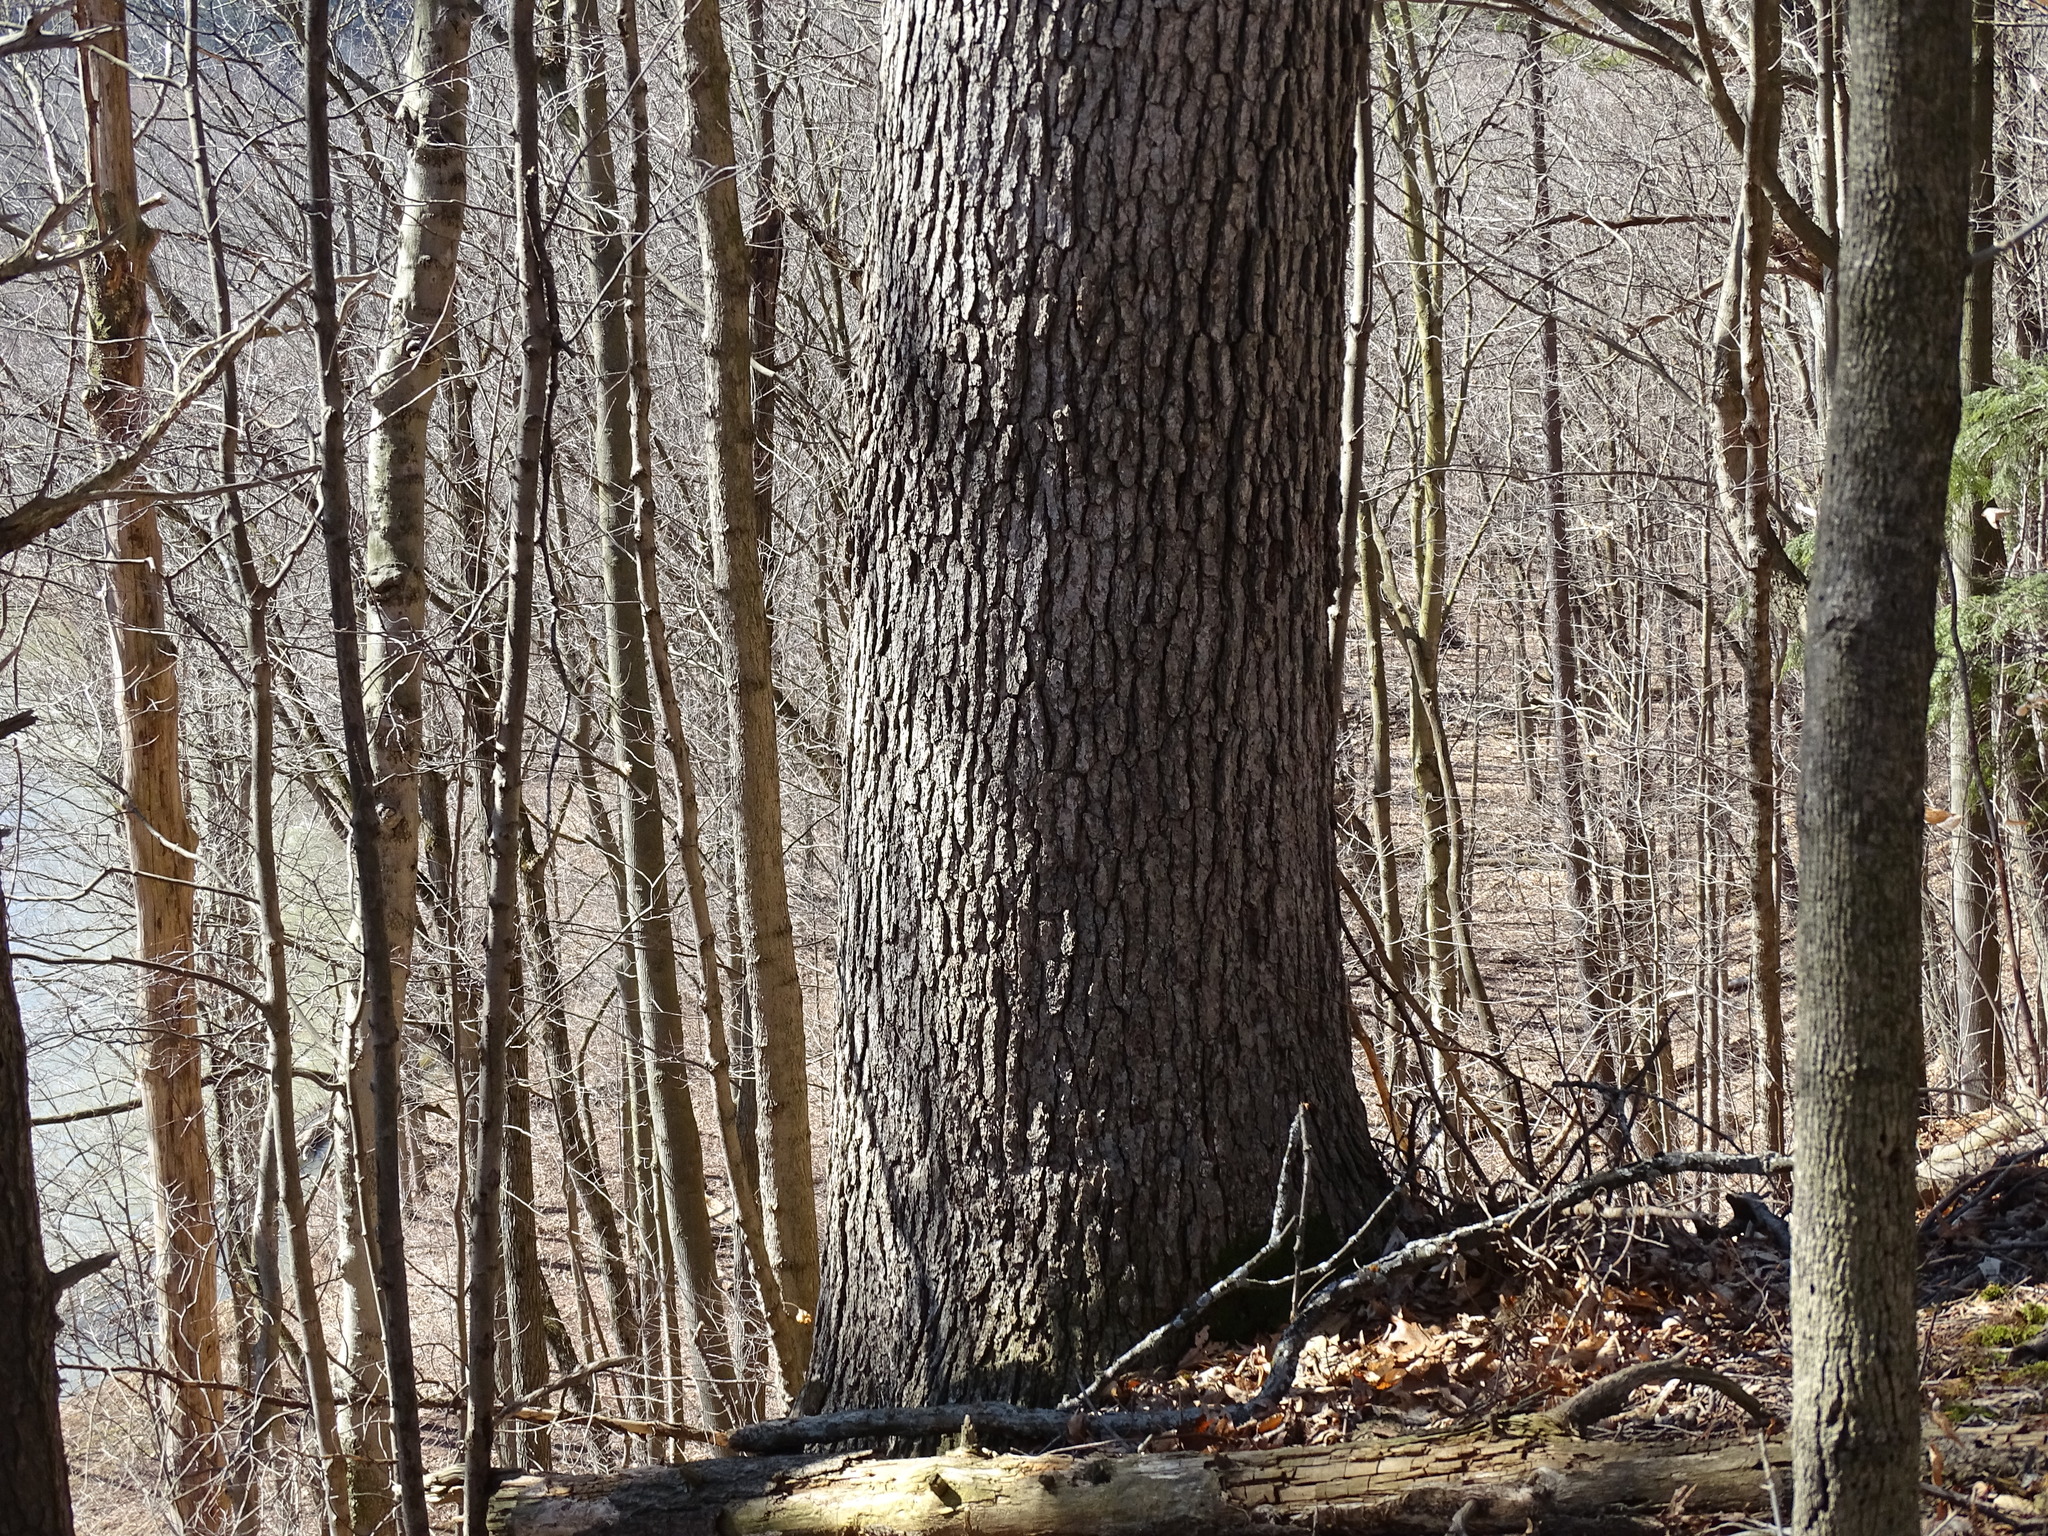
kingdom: Plantae
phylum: Tracheophyta
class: Magnoliopsida
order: Fagales
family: Fagaceae
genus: Quercus
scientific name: Quercus alba
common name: White oak
